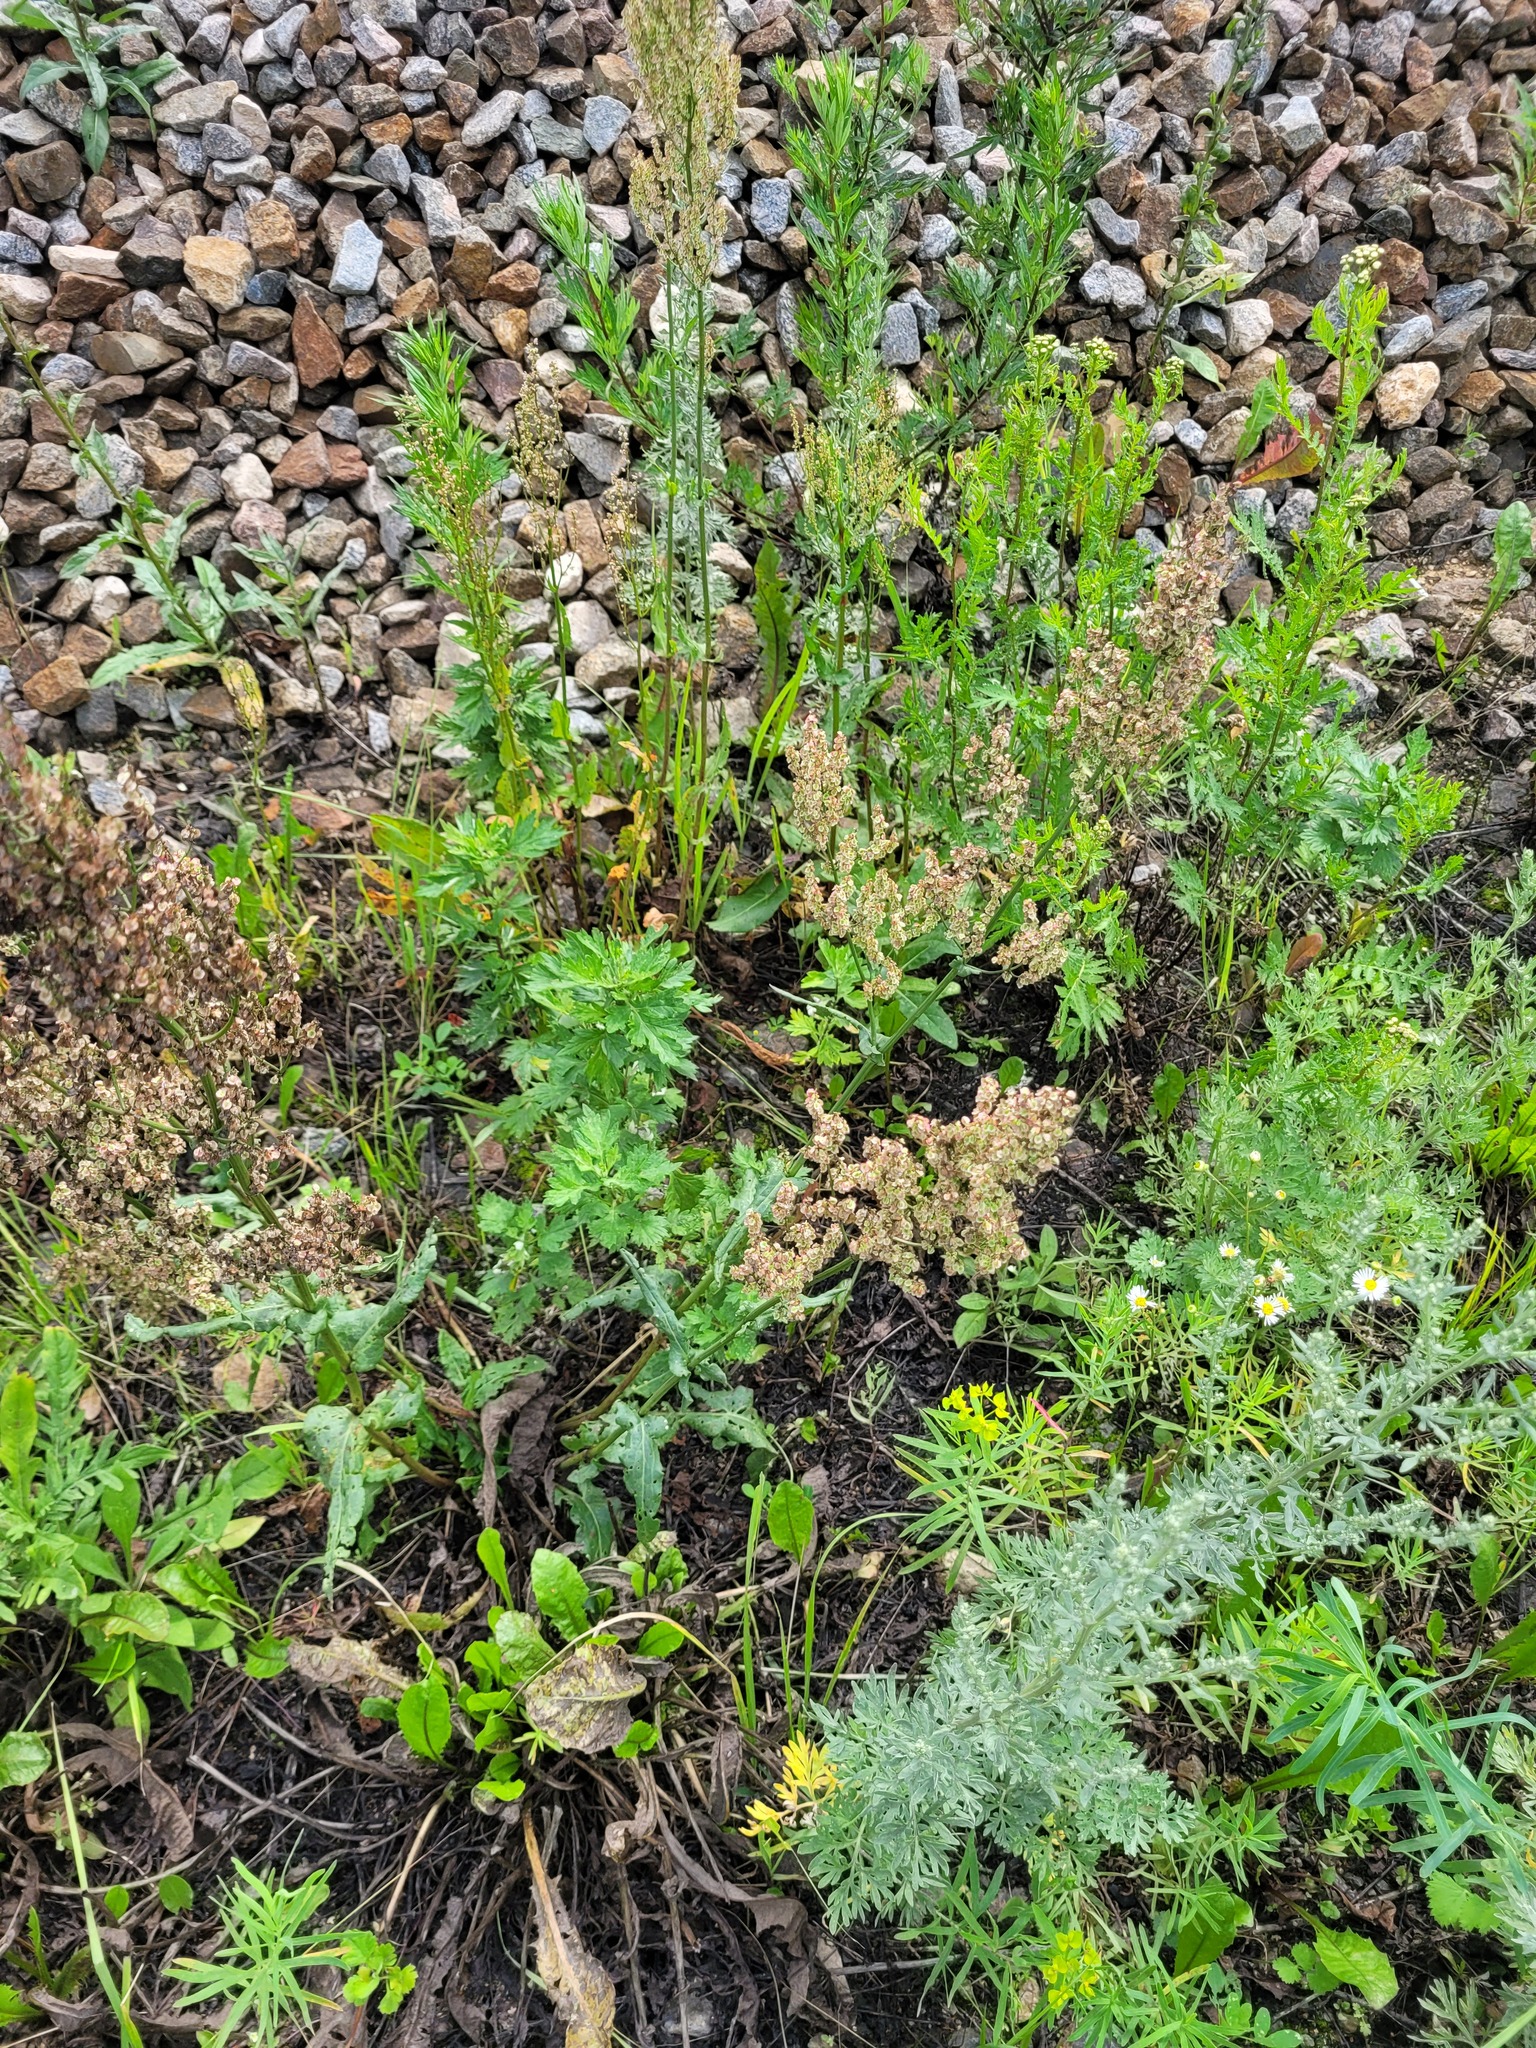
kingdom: Plantae
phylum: Tracheophyta
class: Magnoliopsida
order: Caryophyllales
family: Polygonaceae
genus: Rumex
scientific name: Rumex thyrsiflorus
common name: Garden sorrel
